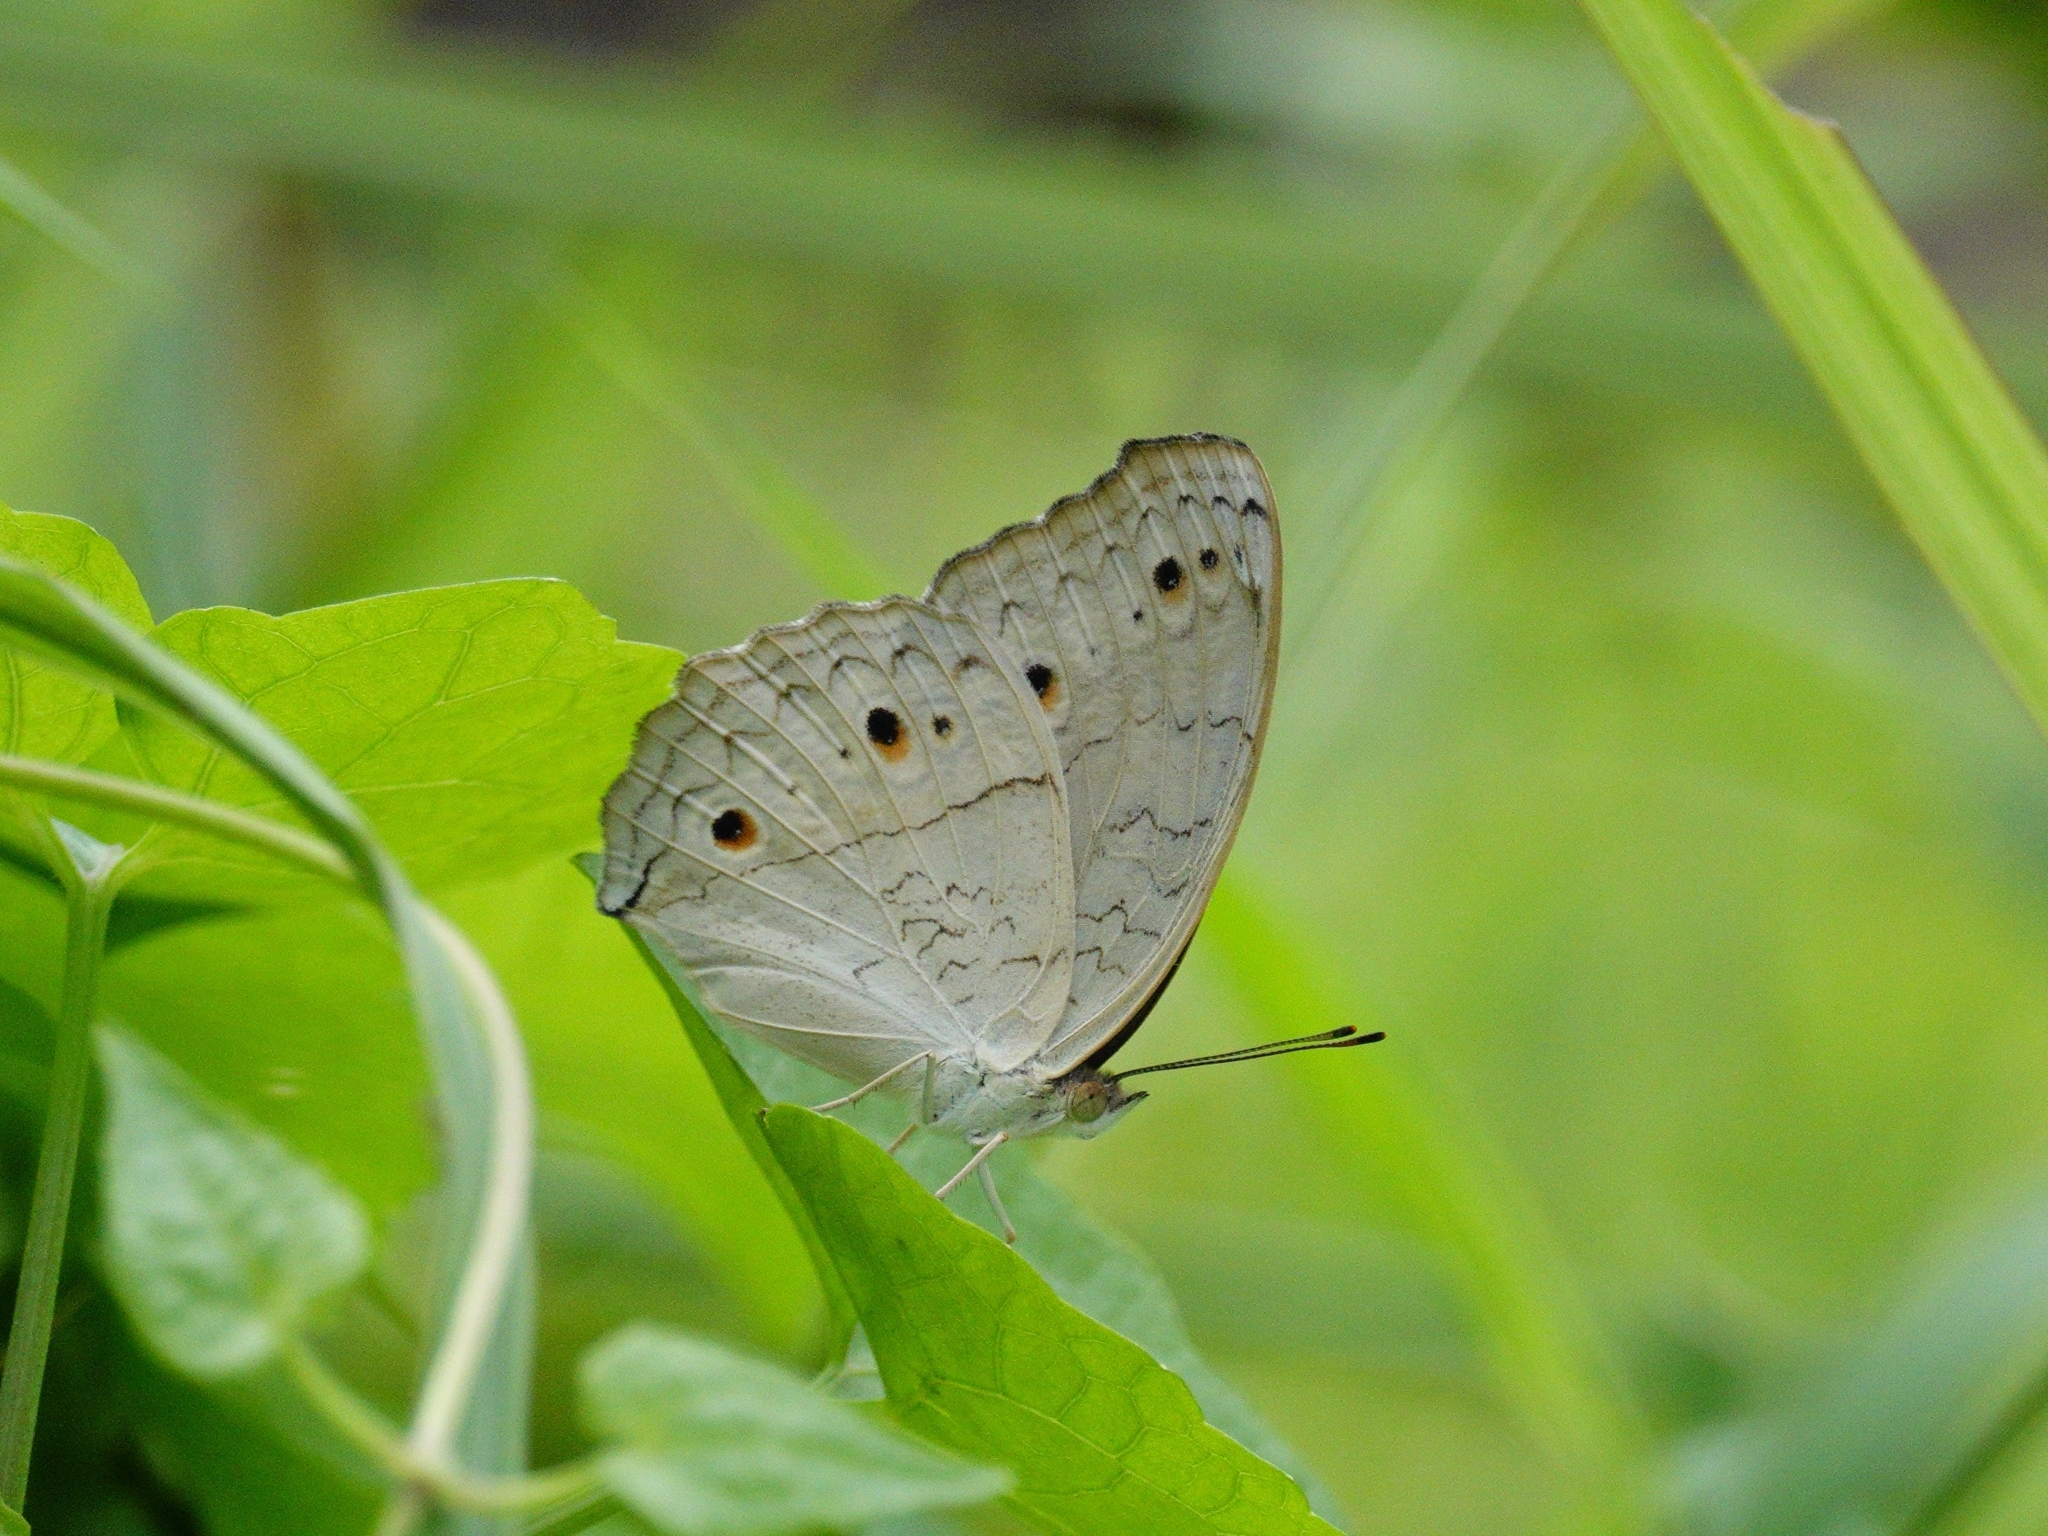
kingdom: Animalia
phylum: Arthropoda
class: Insecta
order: Lepidoptera
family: Nymphalidae
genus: Junonia
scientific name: Junonia atlites
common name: Grey pansy
